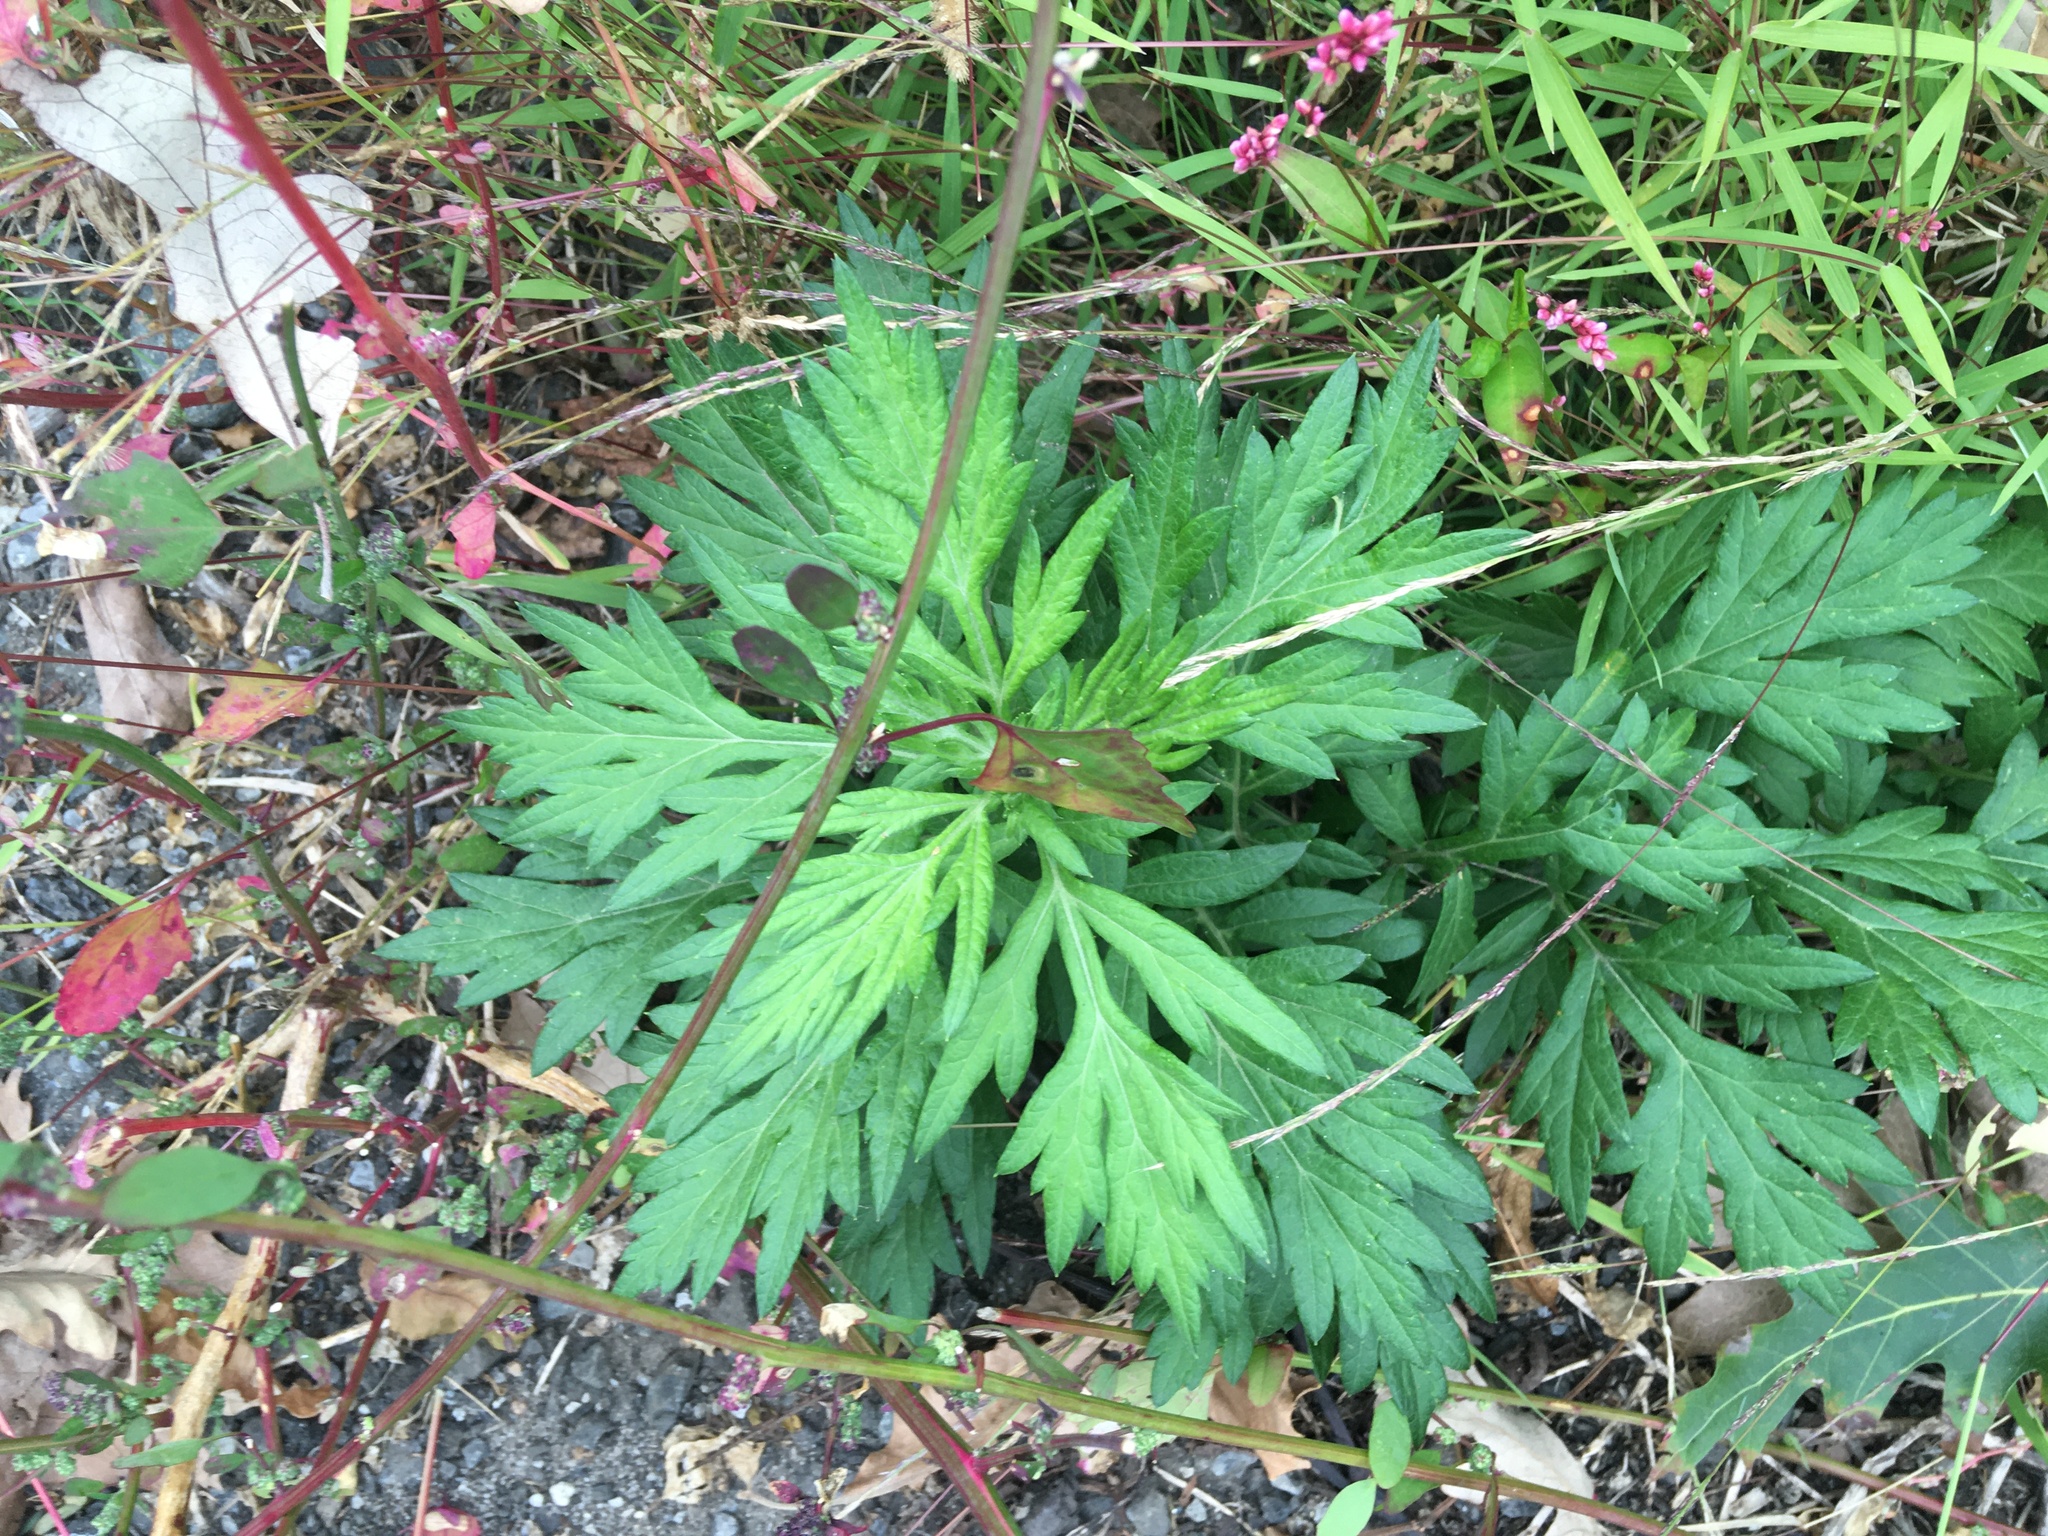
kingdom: Plantae
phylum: Tracheophyta
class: Magnoliopsida
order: Asterales
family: Asteraceae
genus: Artemisia
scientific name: Artemisia vulgaris
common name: Mugwort
